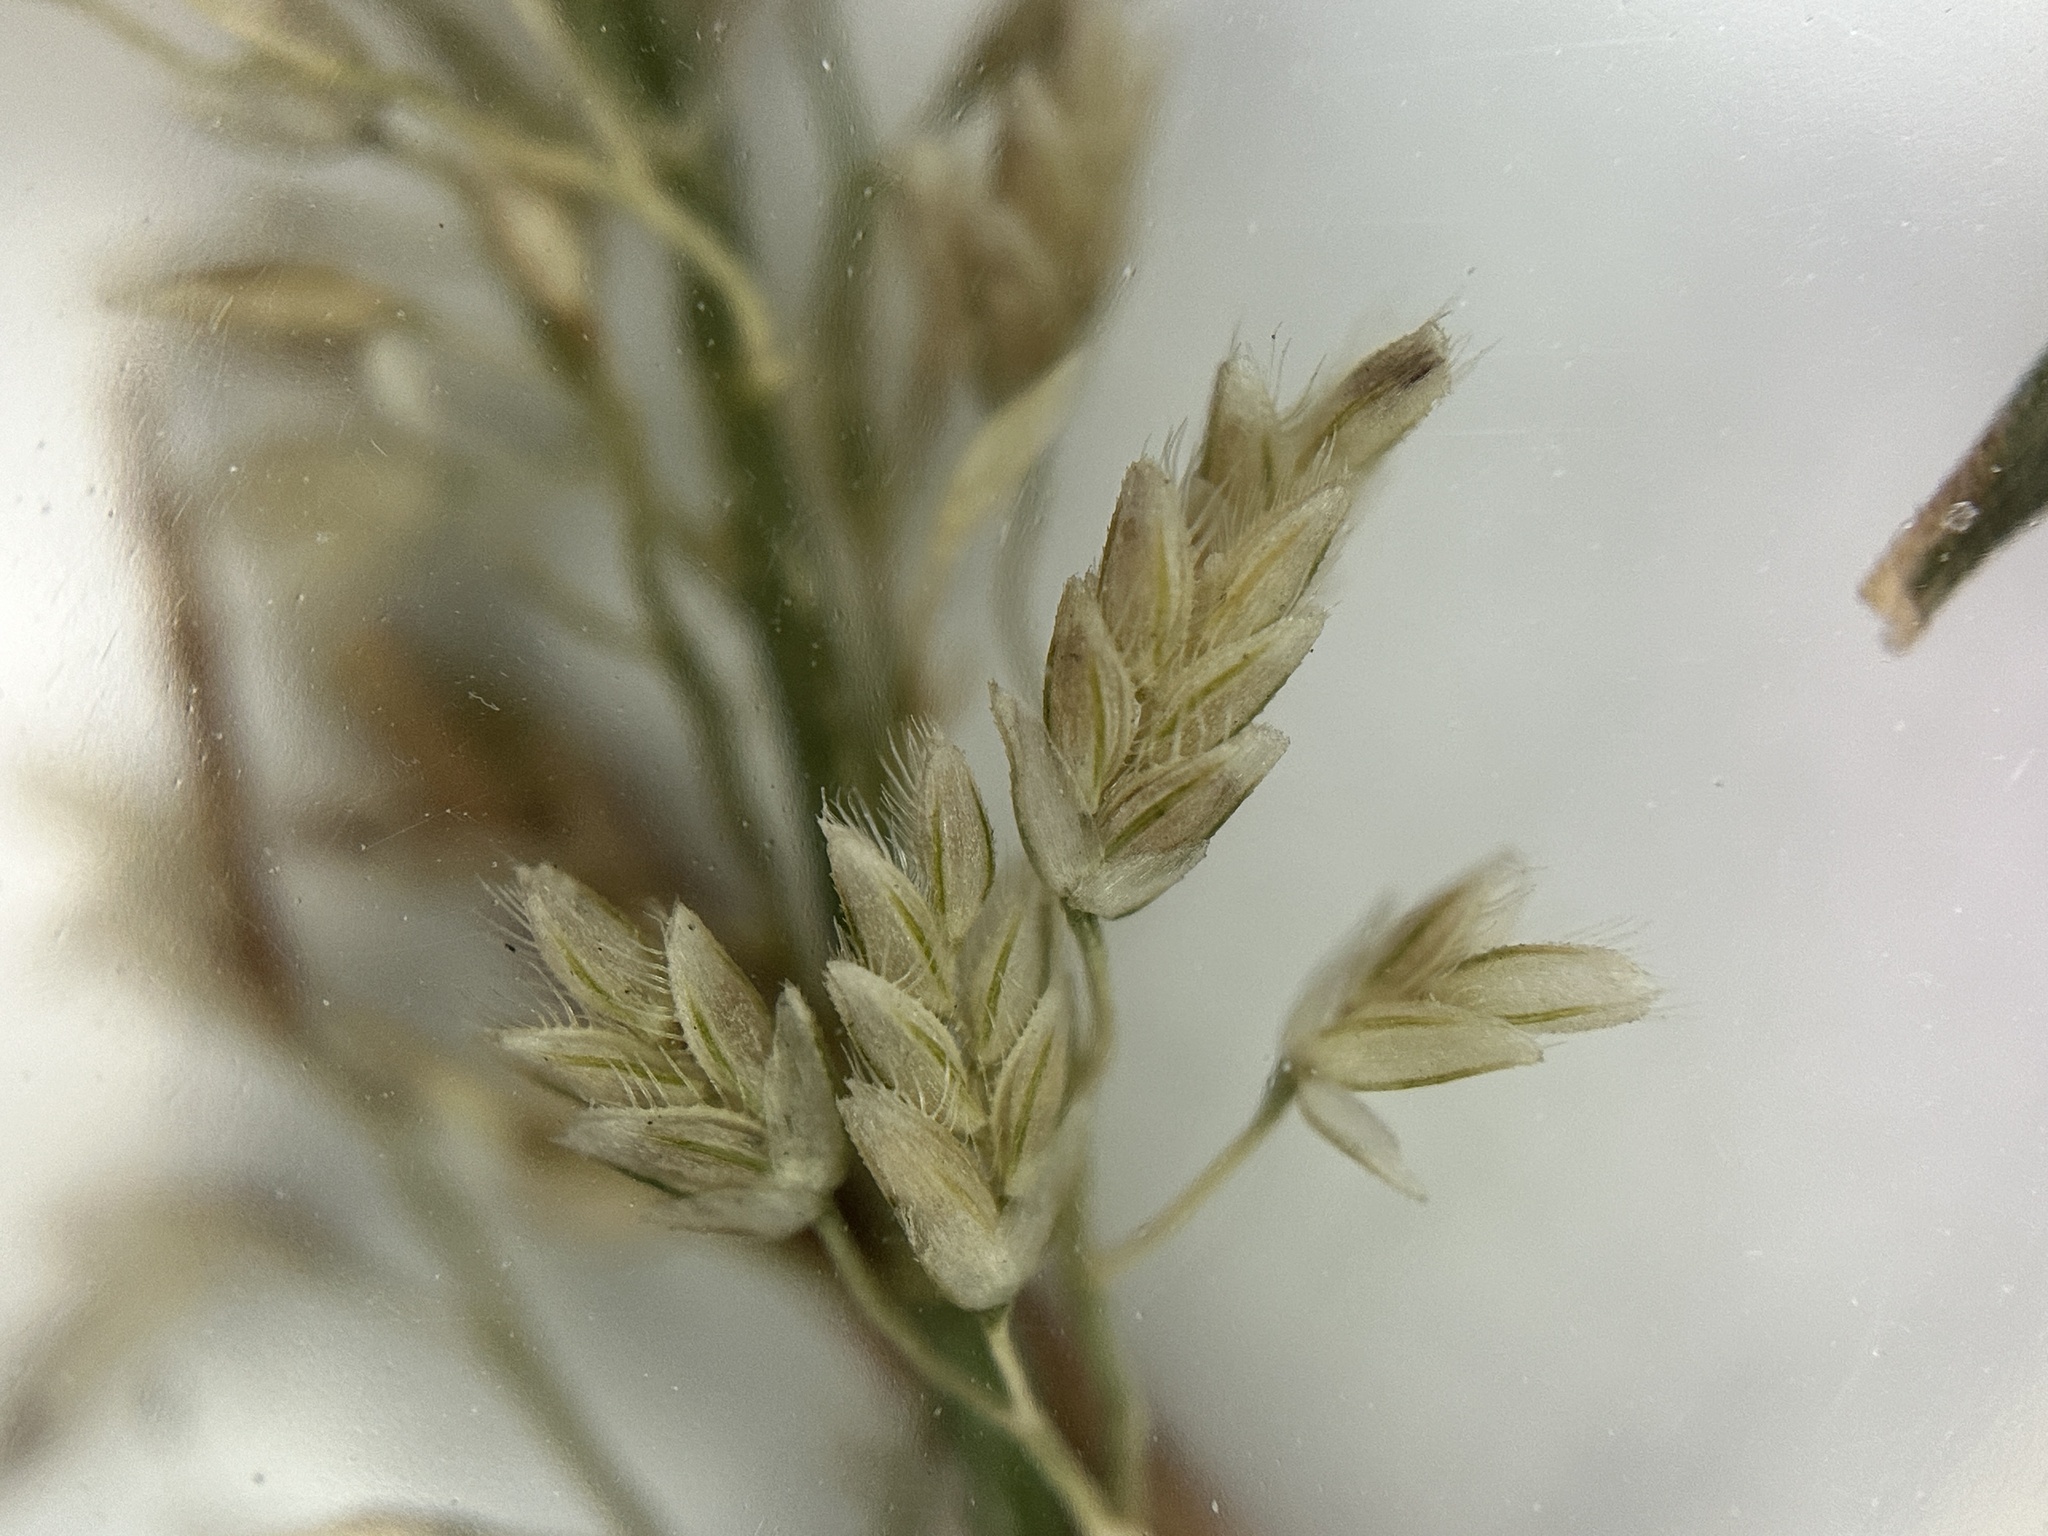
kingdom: Plantae
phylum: Tracheophyta
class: Liliopsida
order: Poales
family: Poaceae
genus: Eragrostis
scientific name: Eragrostis tenella
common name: Japanese lovegrass
